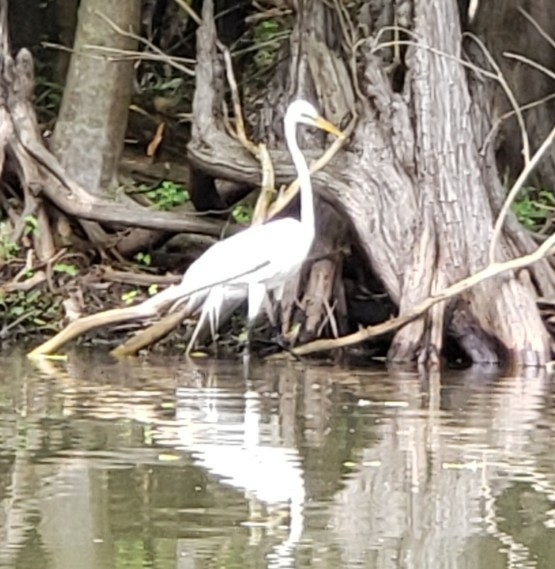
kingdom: Animalia
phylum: Chordata
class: Aves
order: Pelecaniformes
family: Ardeidae
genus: Ardea
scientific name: Ardea alba
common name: Great egret
